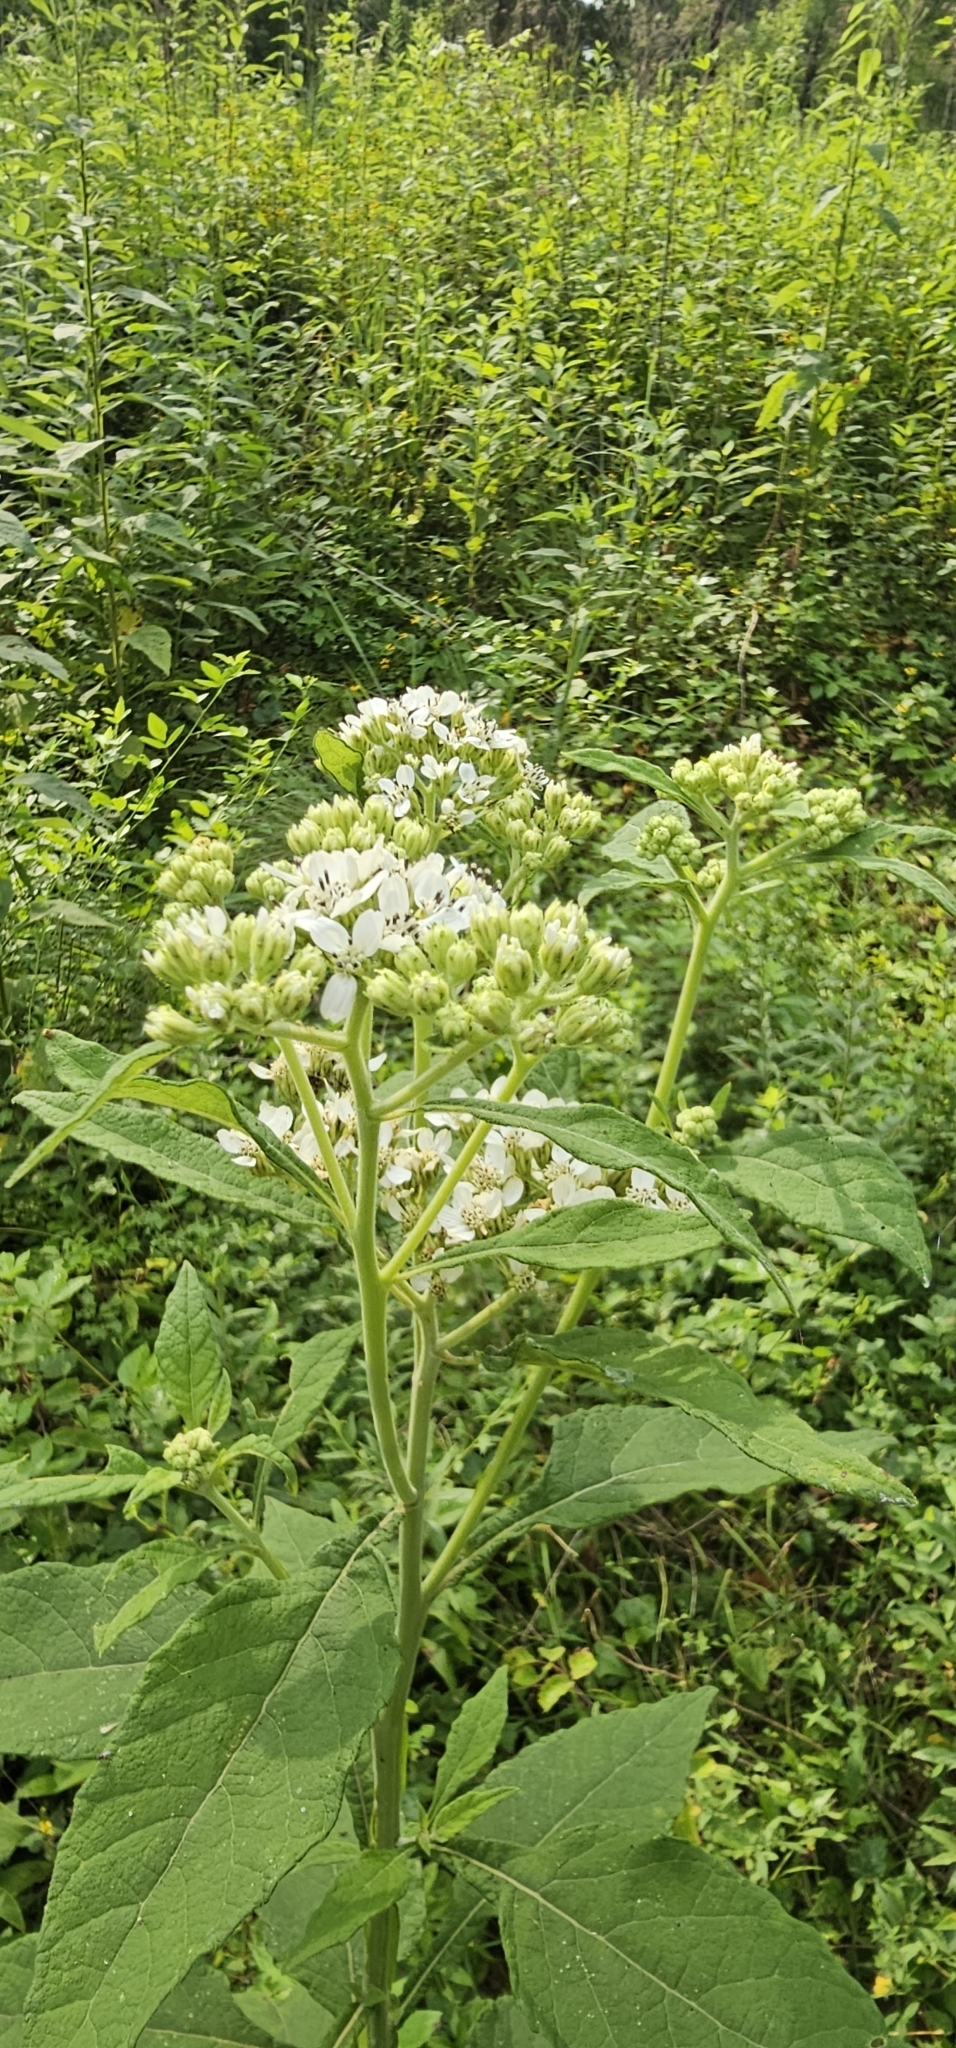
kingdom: Plantae
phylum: Tracheophyta
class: Magnoliopsida
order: Asterales
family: Asteraceae
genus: Verbesina
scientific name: Verbesina virginica
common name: Frostweed
